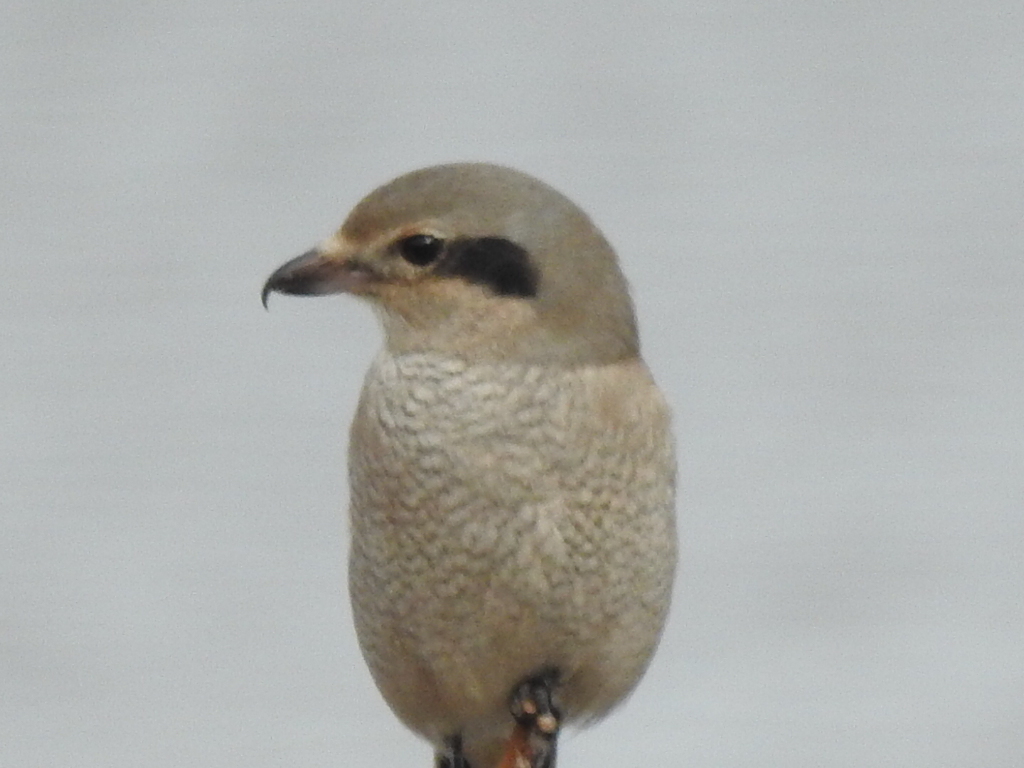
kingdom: Animalia
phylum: Chordata
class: Aves
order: Passeriformes
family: Laniidae
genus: Lanius
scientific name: Lanius borealis
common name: Northern shrike
